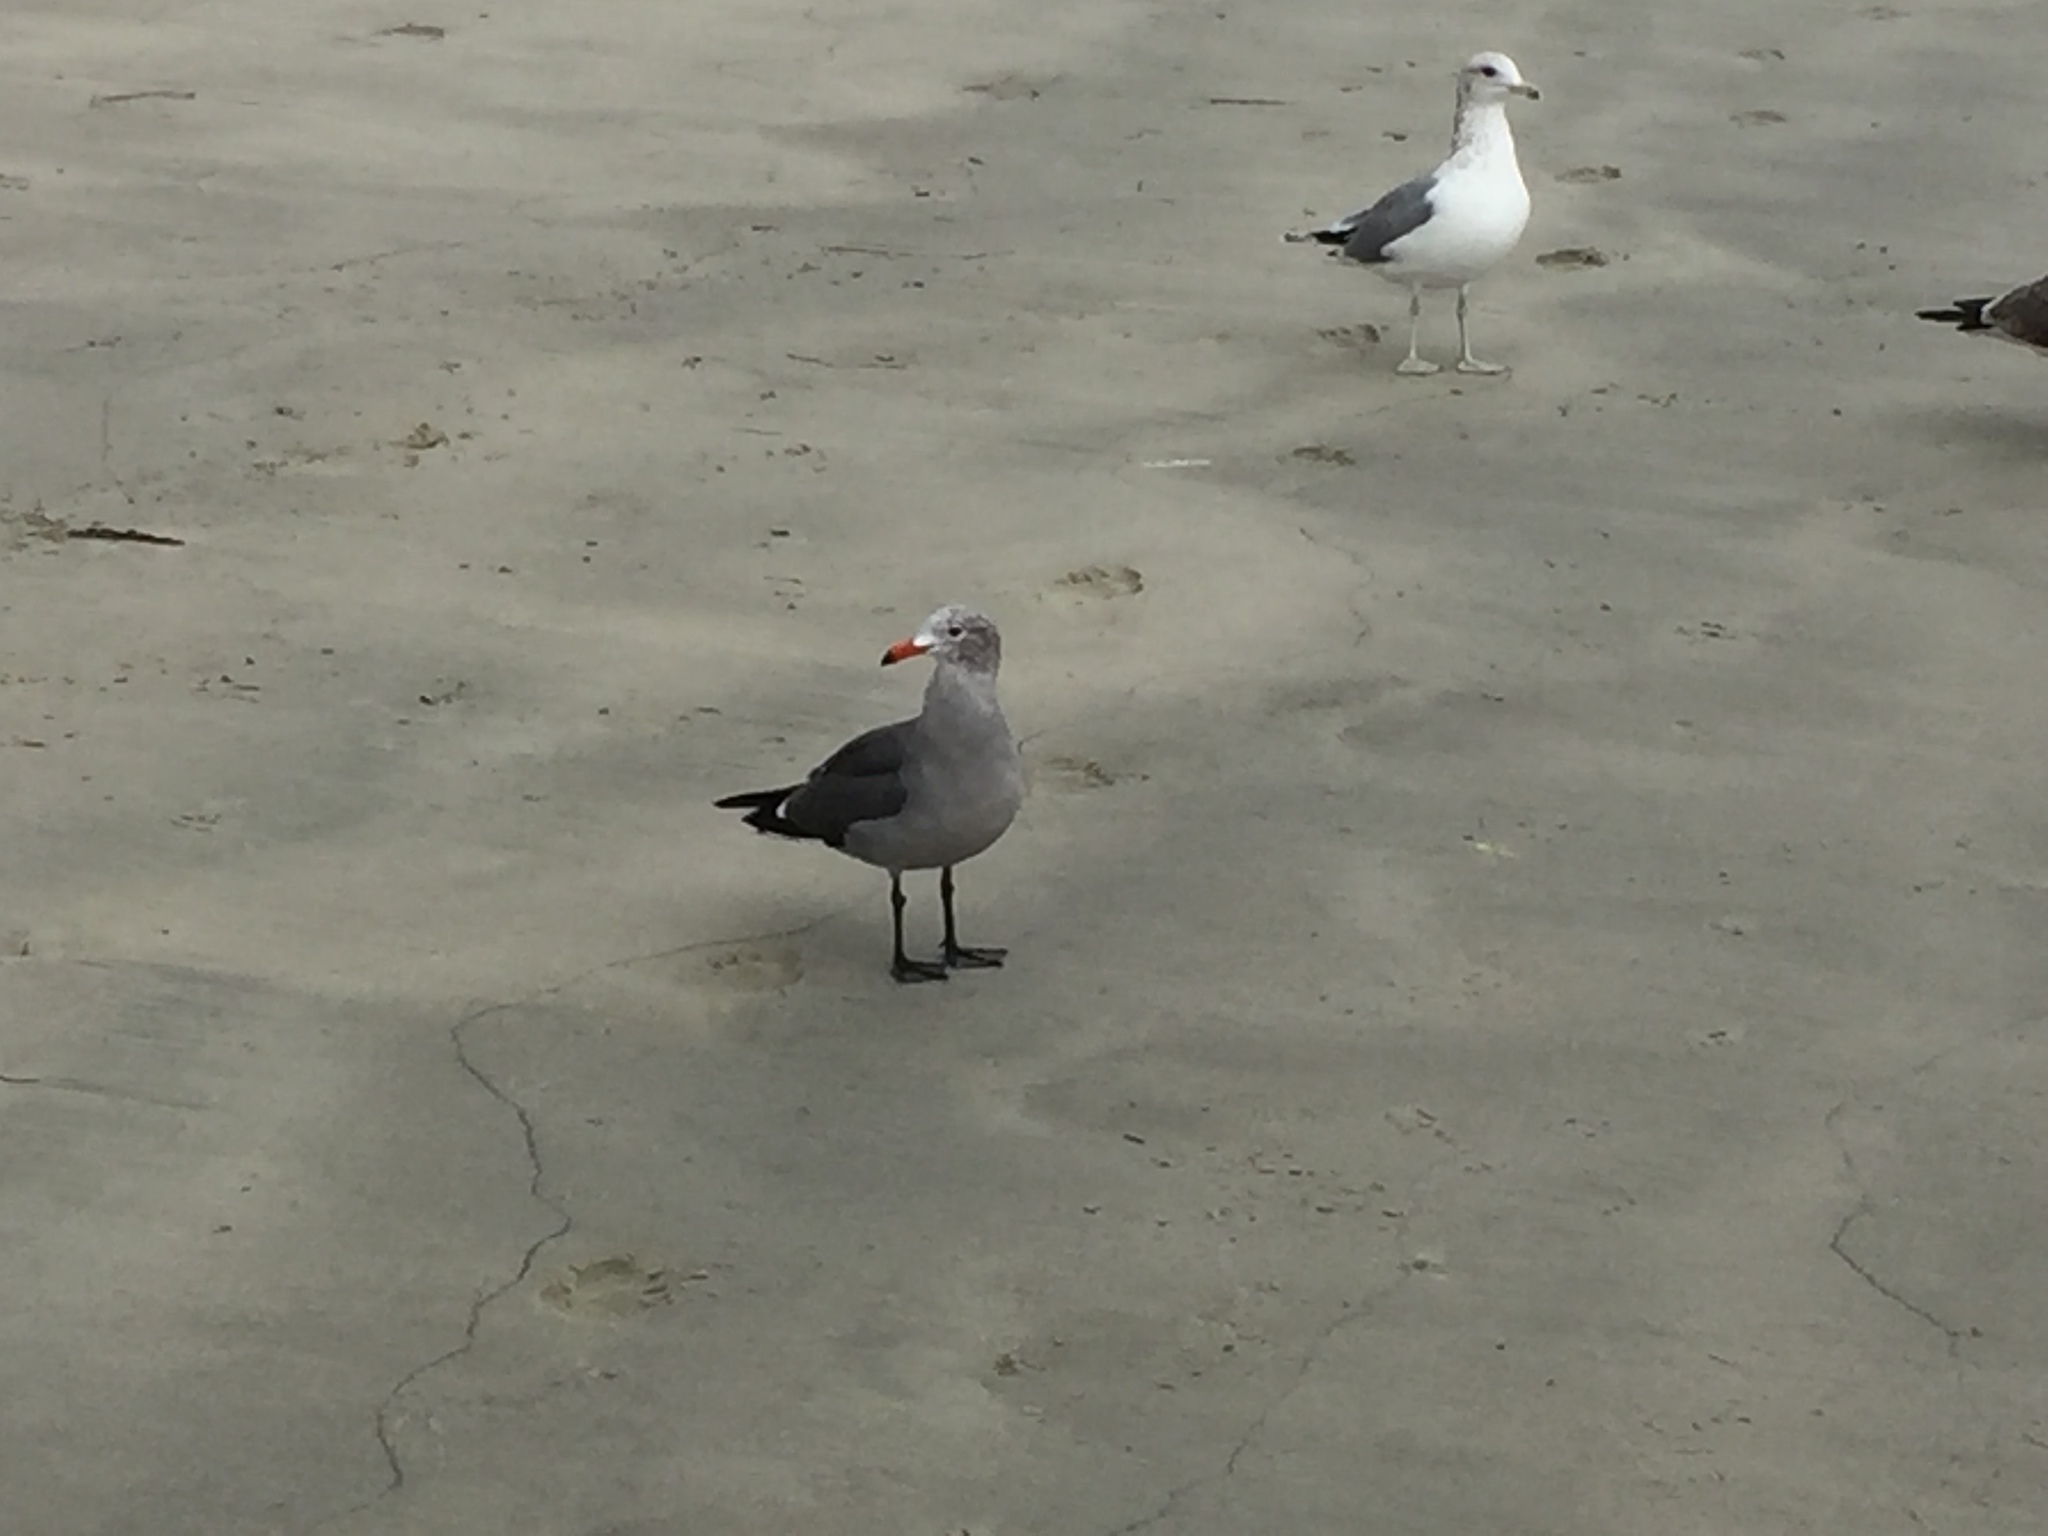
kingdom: Animalia
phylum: Chordata
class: Aves
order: Charadriiformes
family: Laridae
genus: Larus
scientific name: Larus heermanni
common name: Heermann's gull
